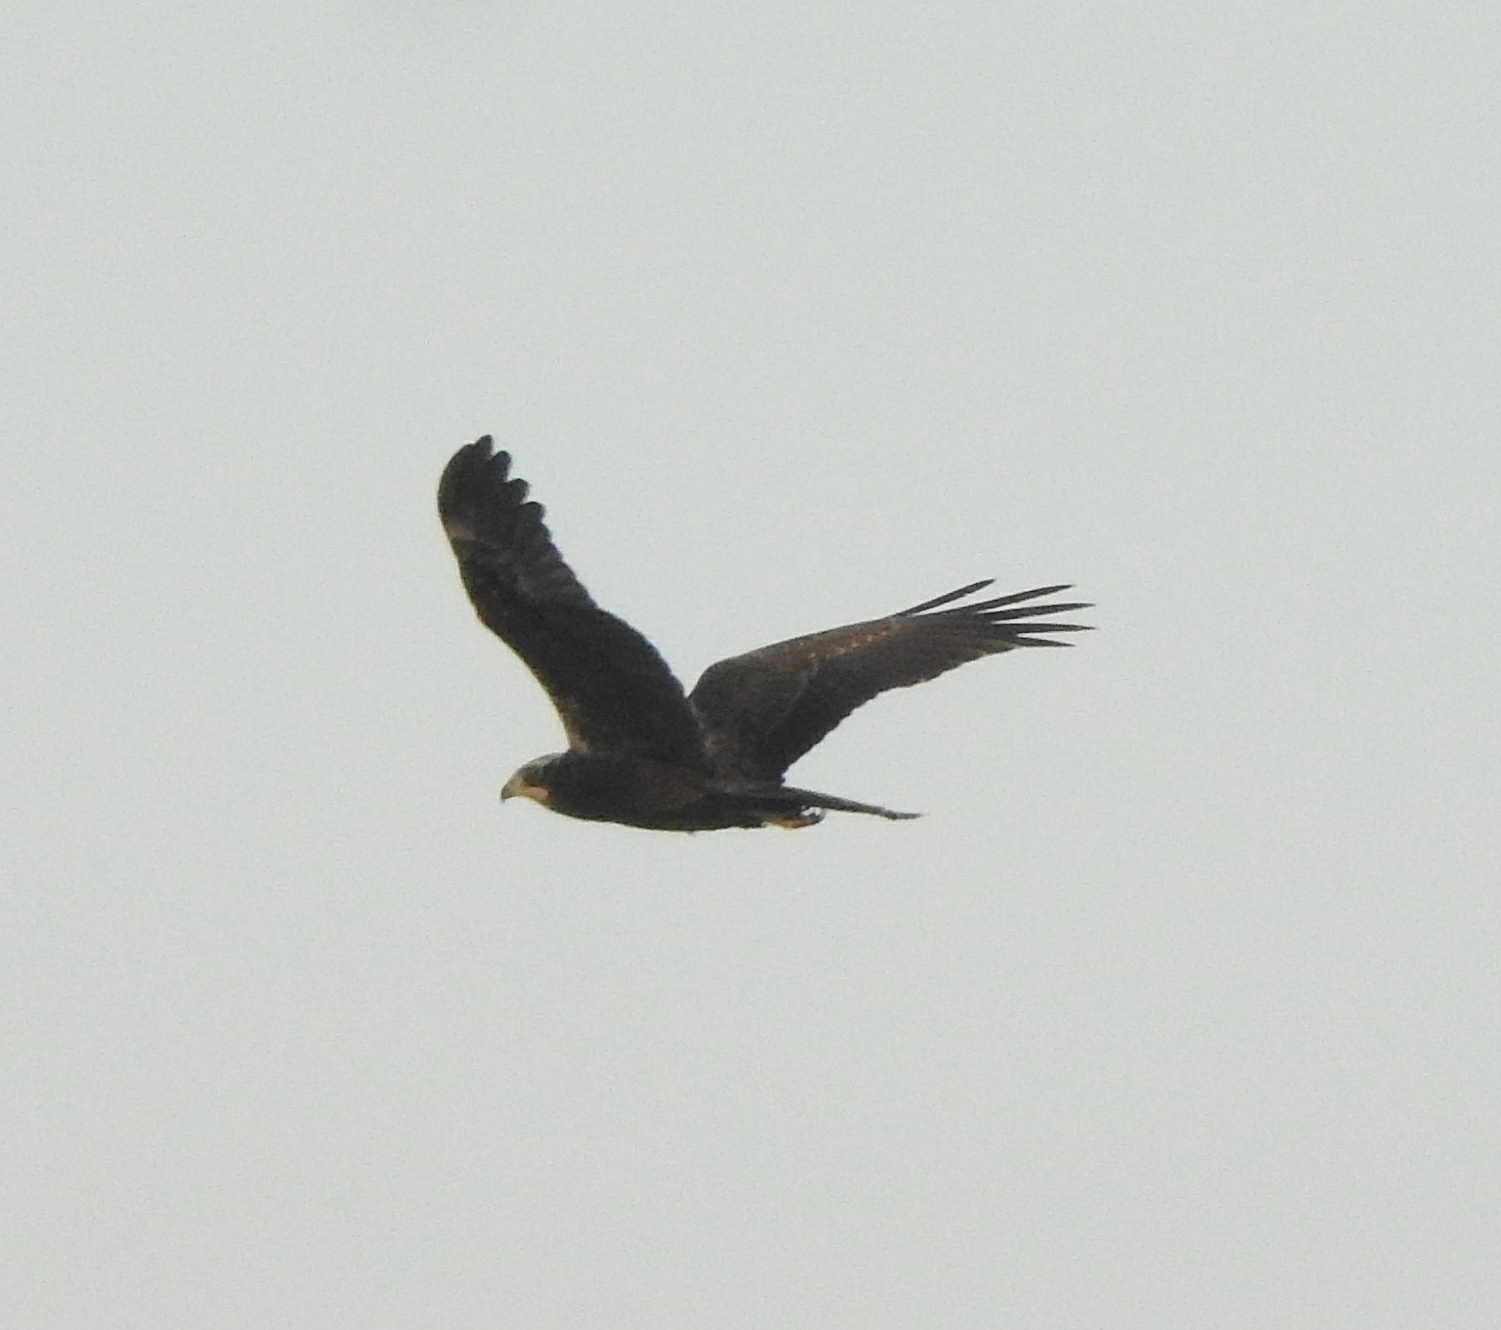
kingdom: Animalia
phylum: Chordata
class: Aves
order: Accipitriformes
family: Accipitridae
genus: Circus
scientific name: Circus aeruginosus
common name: Western marsh harrier
